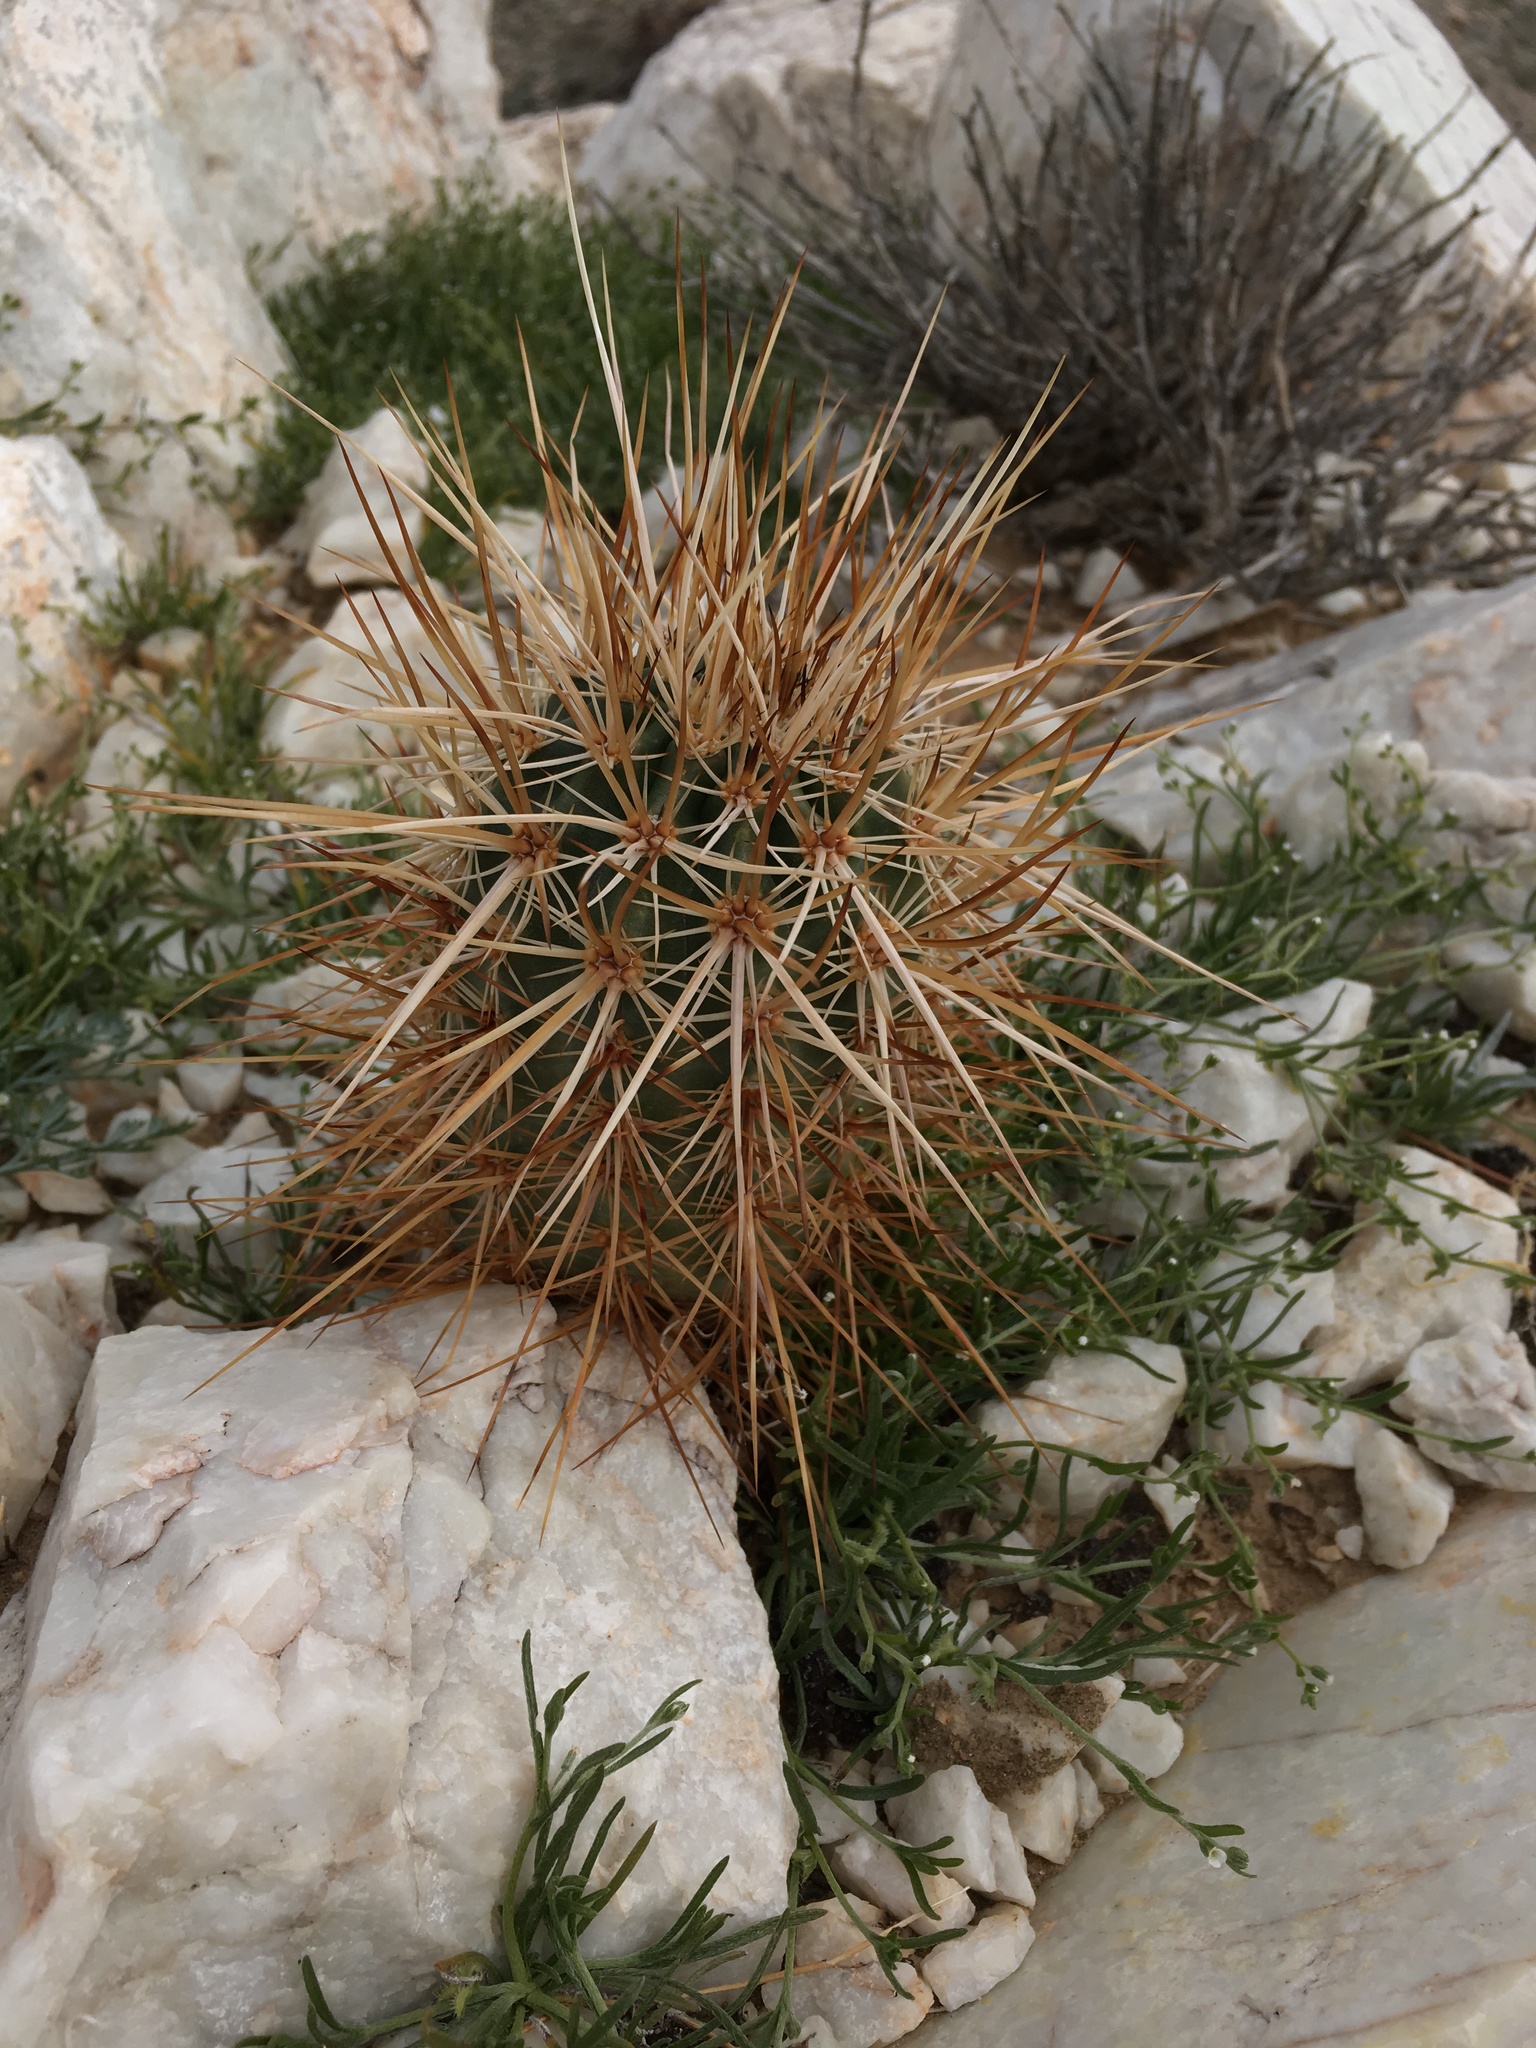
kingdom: Plantae
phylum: Tracheophyta
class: Magnoliopsida
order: Caryophyllales
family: Cactaceae
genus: Echinocereus
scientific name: Echinocereus engelmannii
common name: Engelmann's hedgehog cactus
